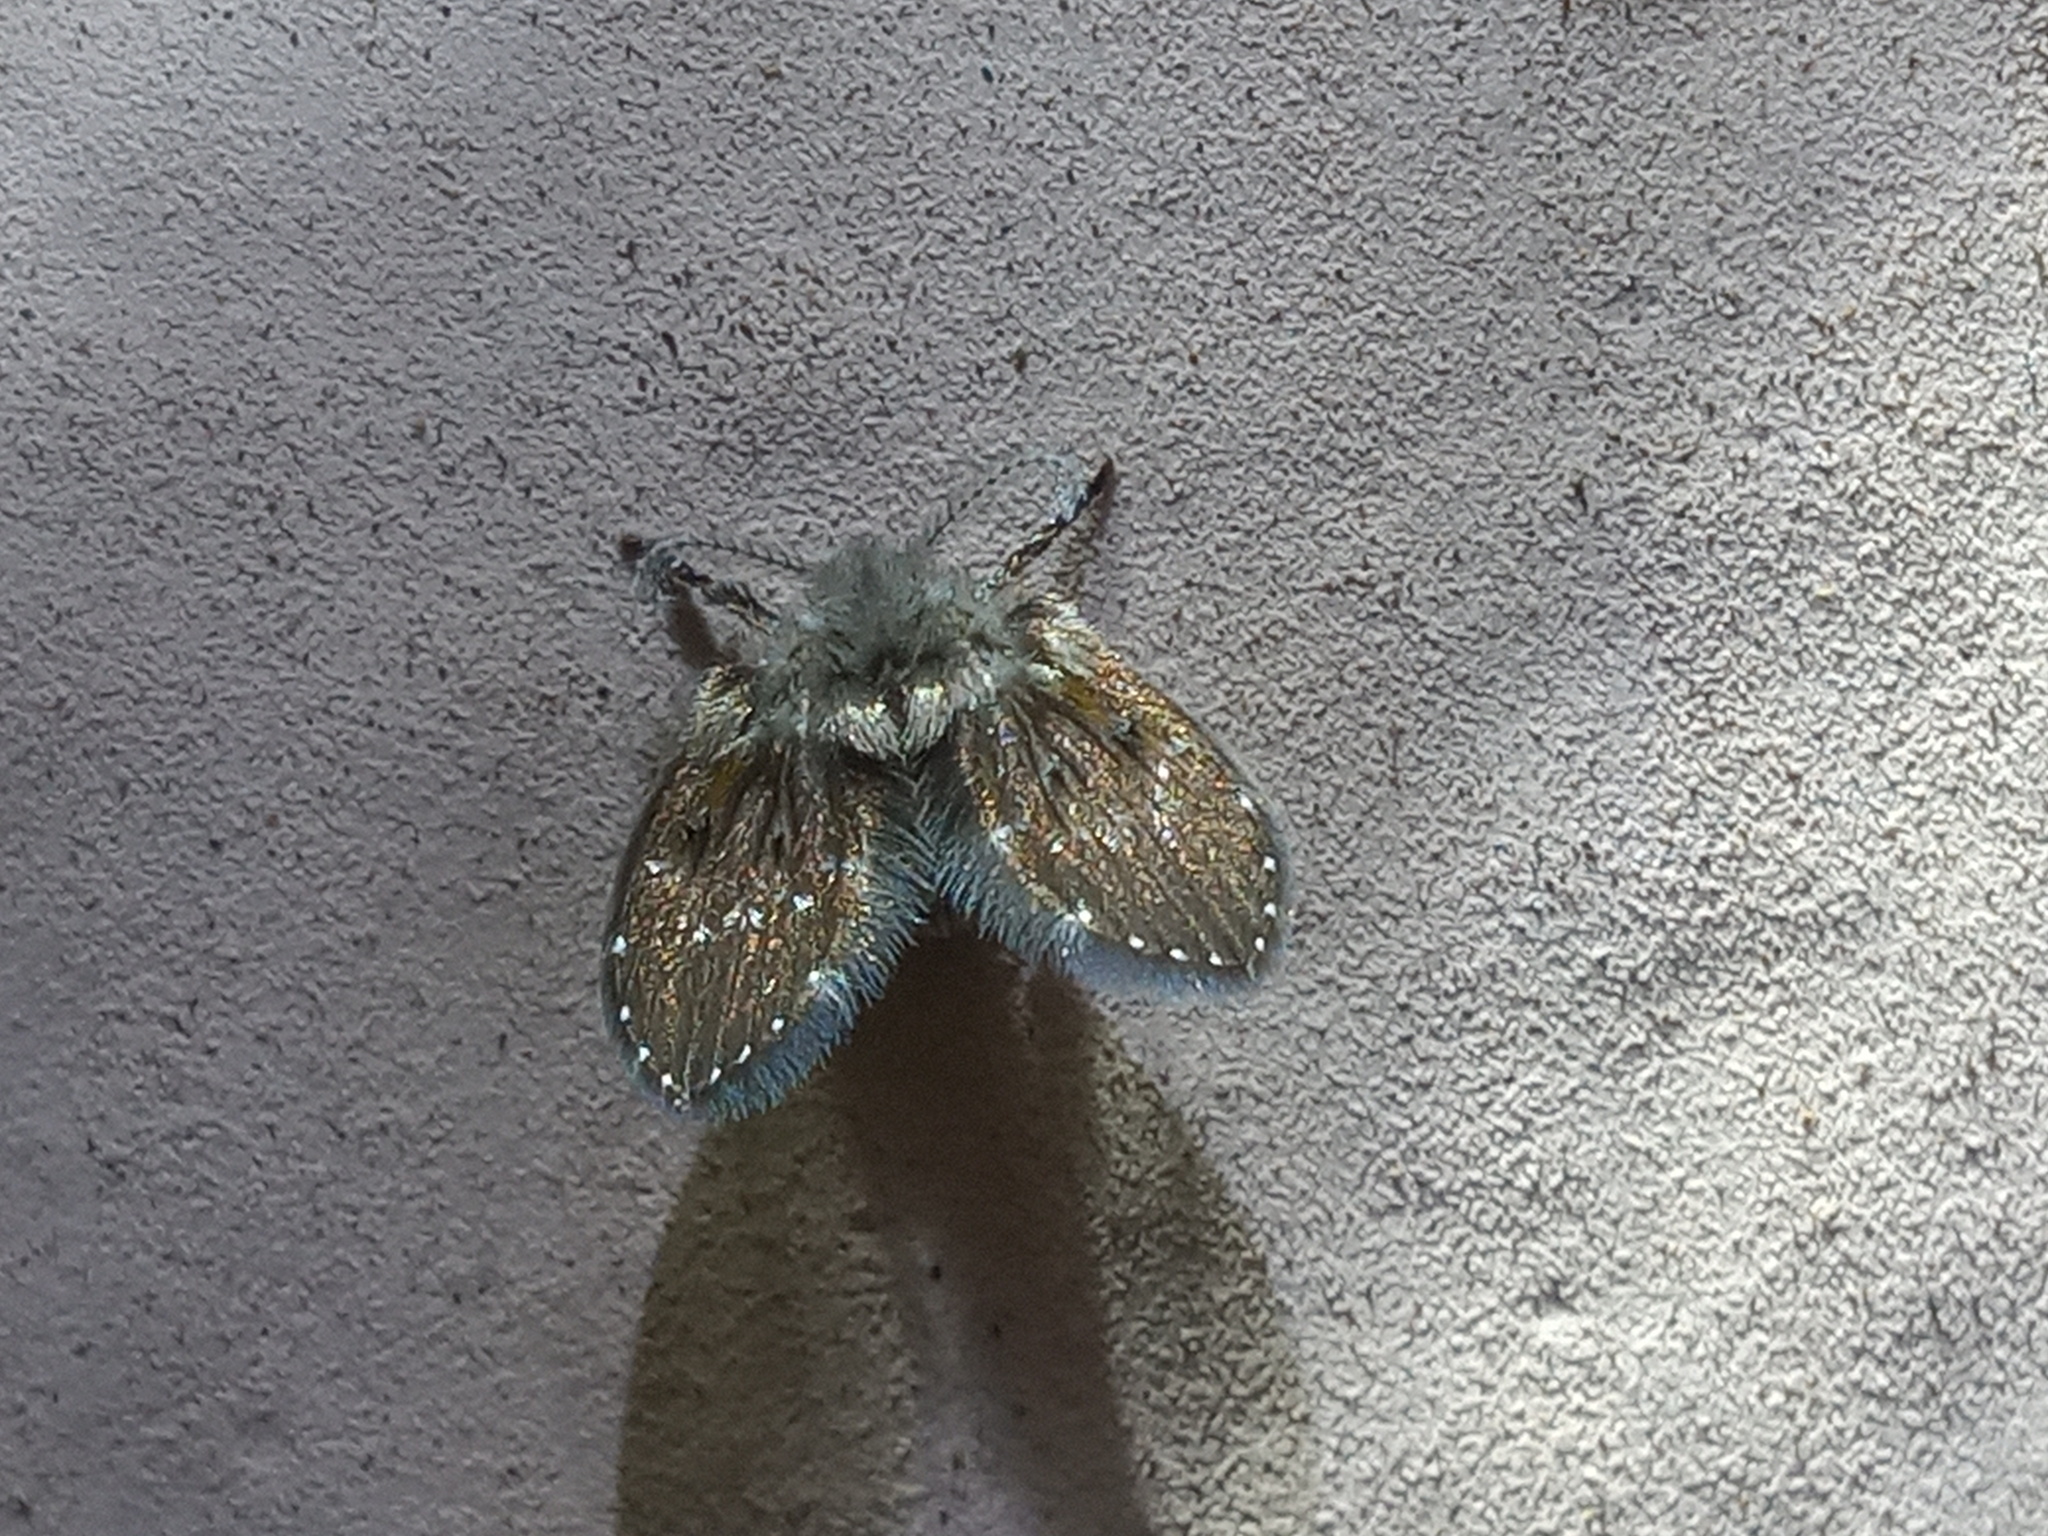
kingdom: Animalia
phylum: Arthropoda
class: Insecta
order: Diptera
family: Psychodidae
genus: Clogmia
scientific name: Clogmia albipunctatus
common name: White-spotted moth fly
